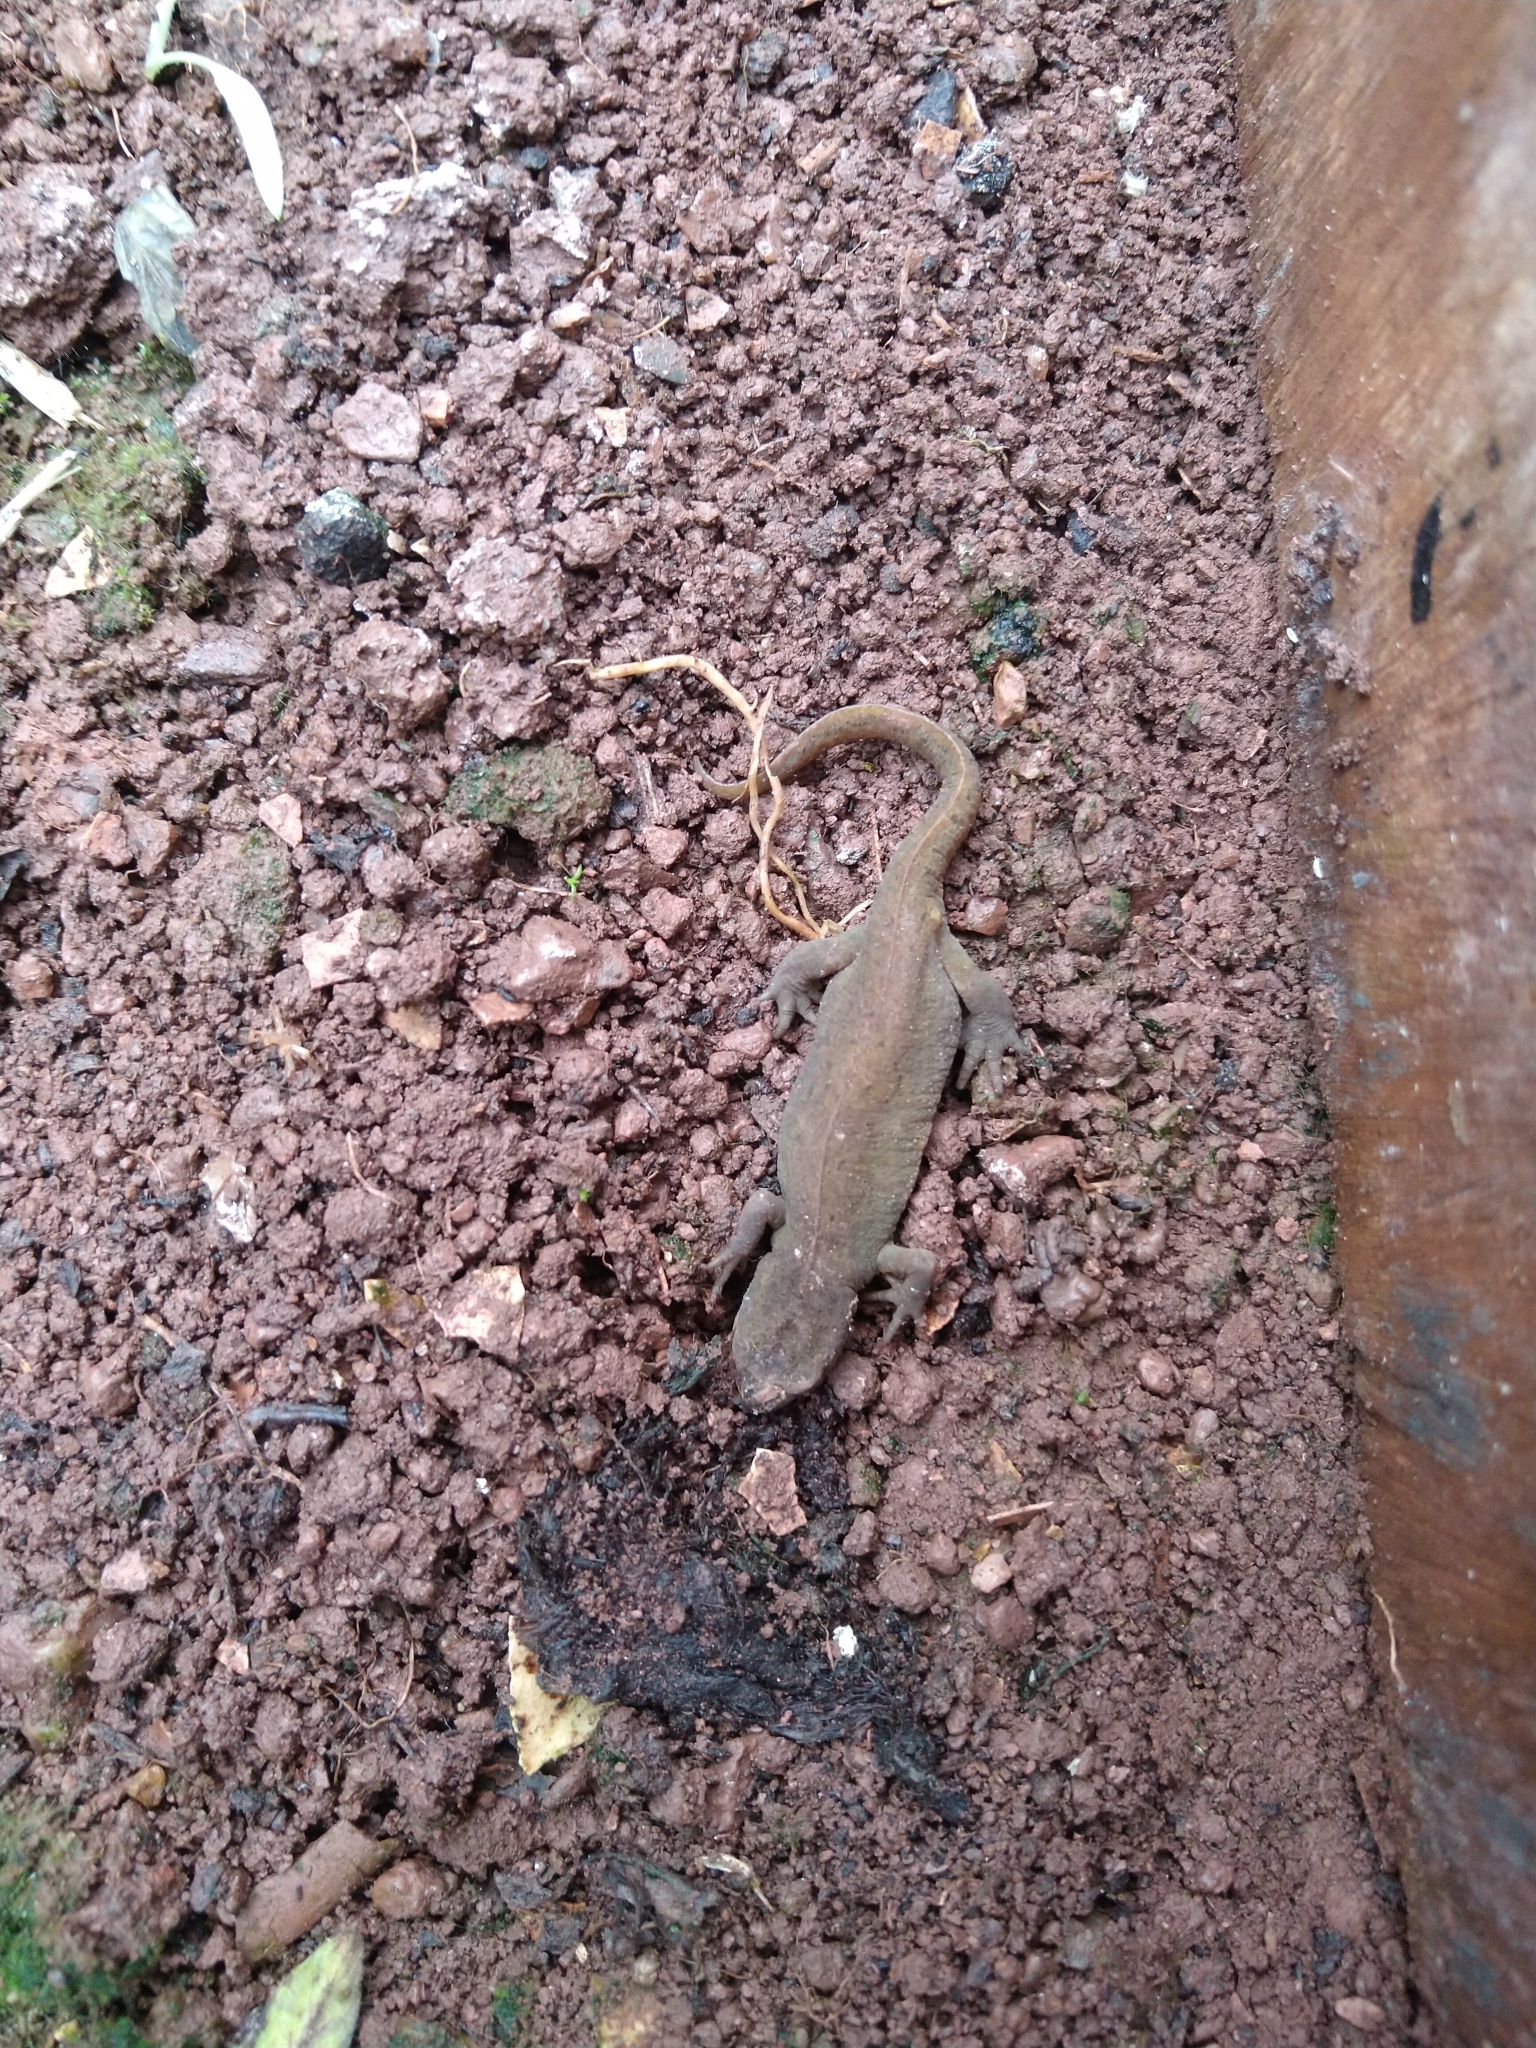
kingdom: Animalia
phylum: Chordata
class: Amphibia
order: Caudata
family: Salamandridae
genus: Lissotriton
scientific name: Lissotriton vulgaris
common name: Smooth newt
